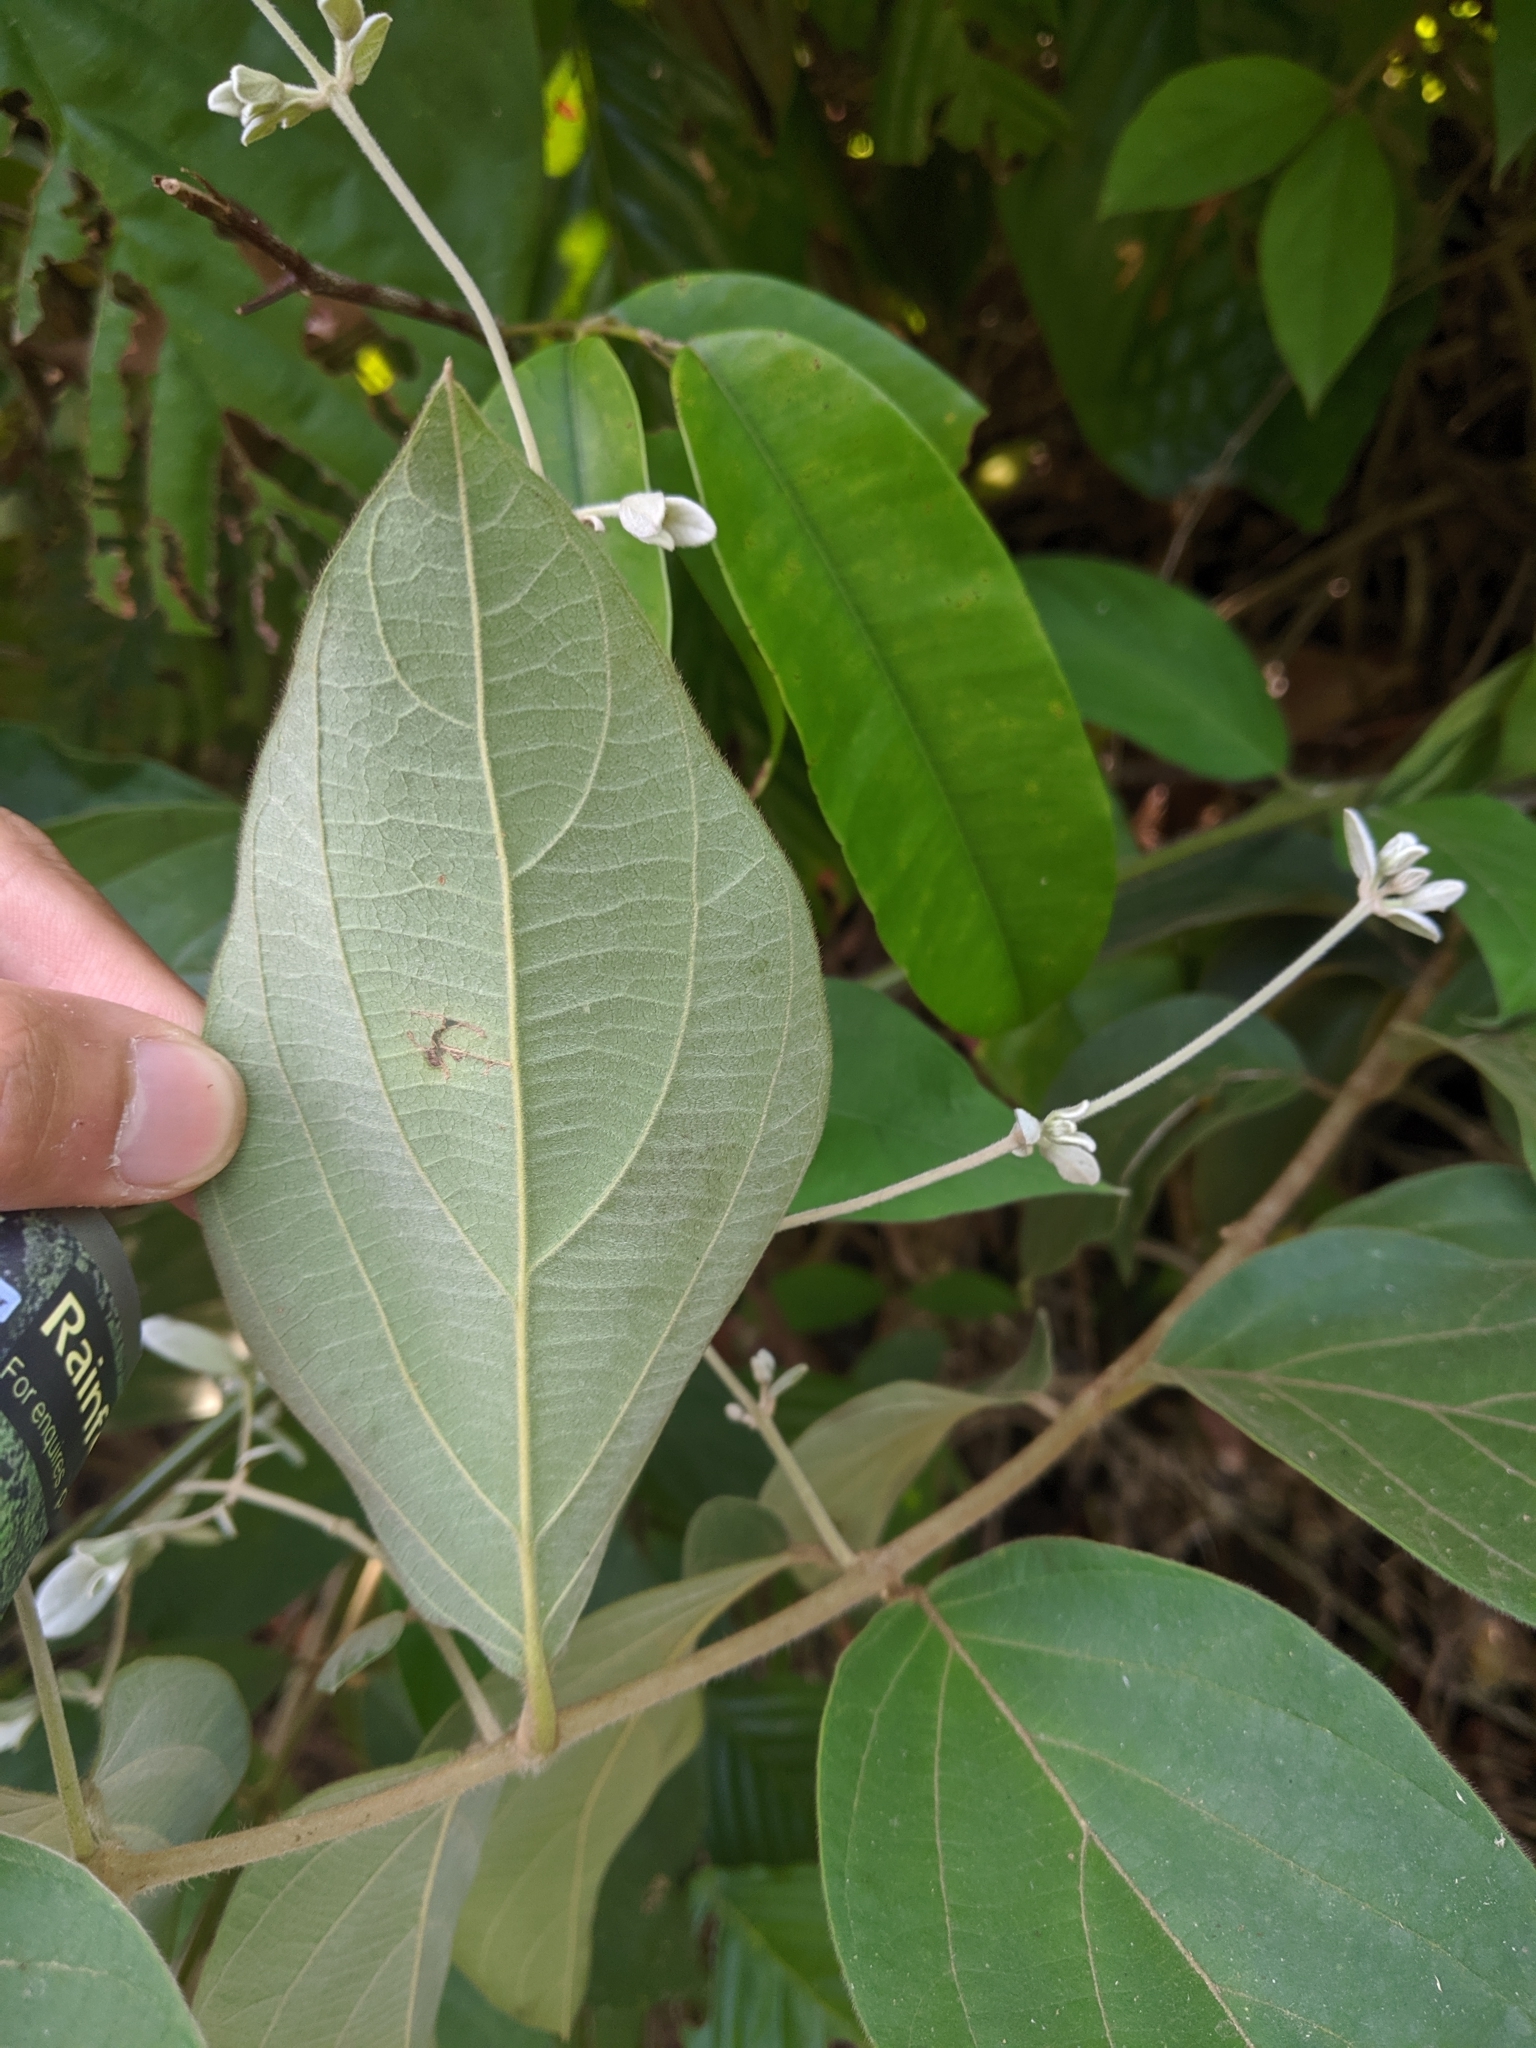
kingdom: Plantae
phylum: Tracheophyta
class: Magnoliopsida
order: Lamiales
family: Lamiaceae
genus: Congea
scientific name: Congea tomentosa
